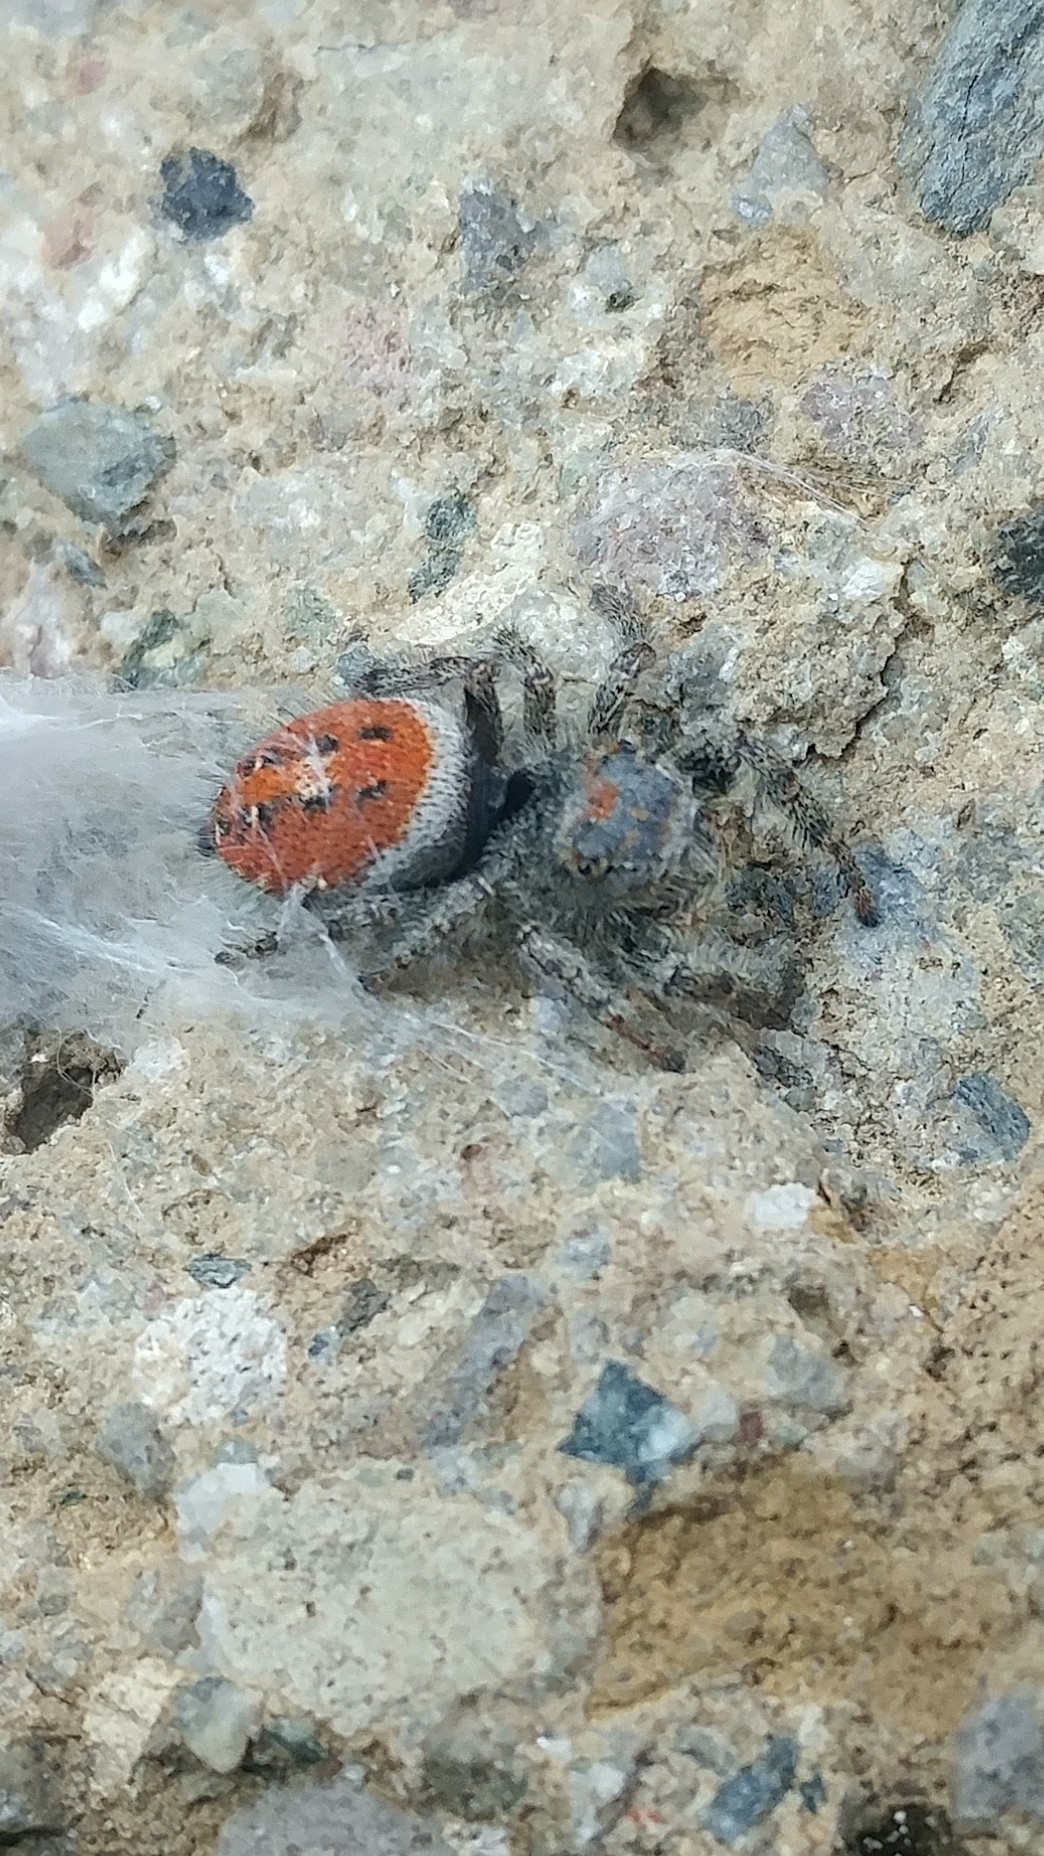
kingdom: Animalia
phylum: Arthropoda
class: Arachnida
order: Araneae
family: Salticidae
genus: Phidippus
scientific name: Phidippus adumbratus
